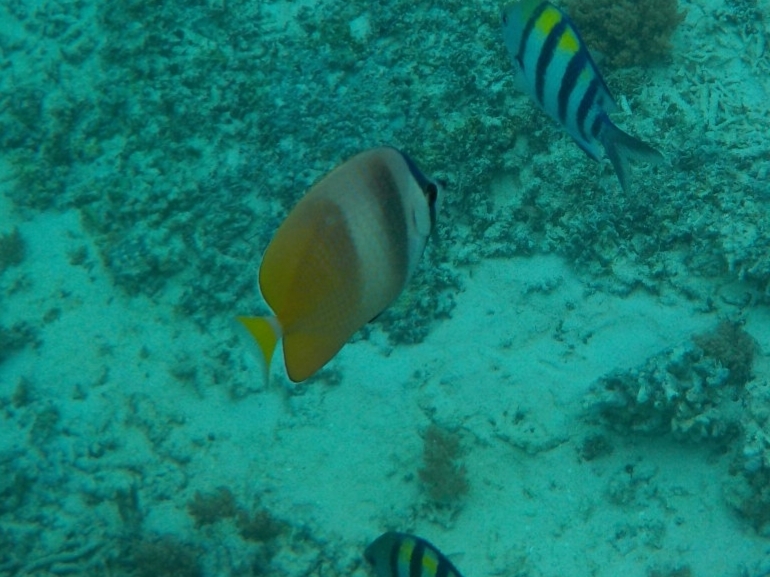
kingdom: Animalia
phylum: Chordata
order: Perciformes
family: Chaetodontidae
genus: Chaetodon
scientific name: Chaetodon kleinii
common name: Klein's butterflyfish
